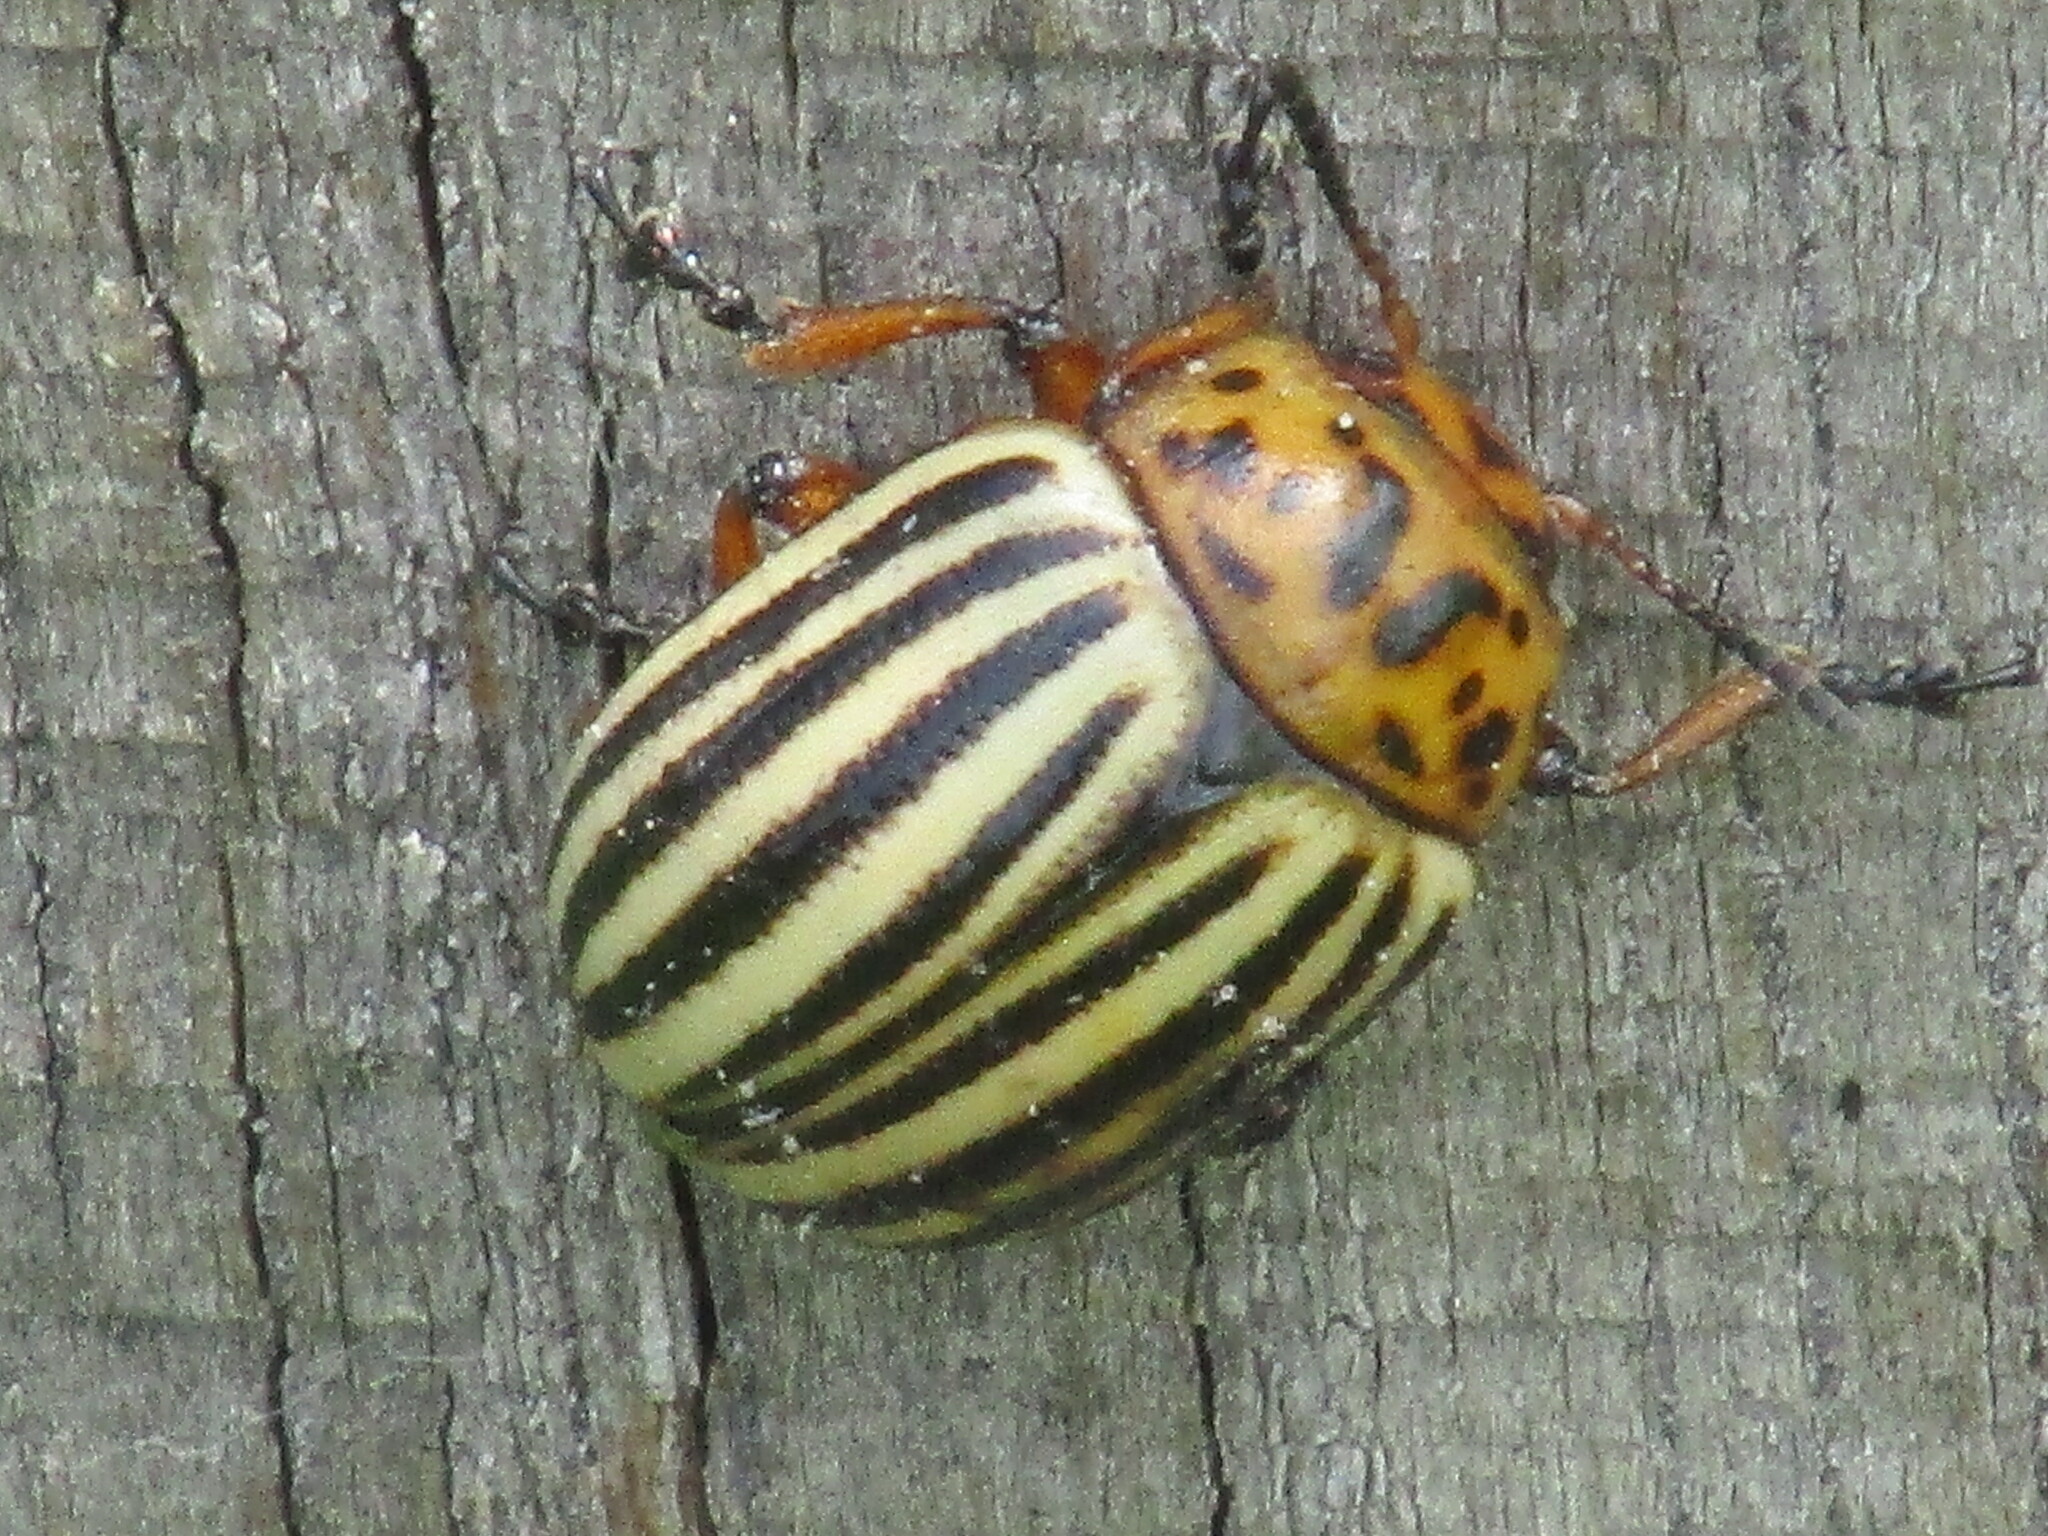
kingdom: Animalia
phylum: Arthropoda
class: Insecta
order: Coleoptera
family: Chrysomelidae
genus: Leptinotarsa
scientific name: Leptinotarsa decemlineata
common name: Colorado potato beetle
